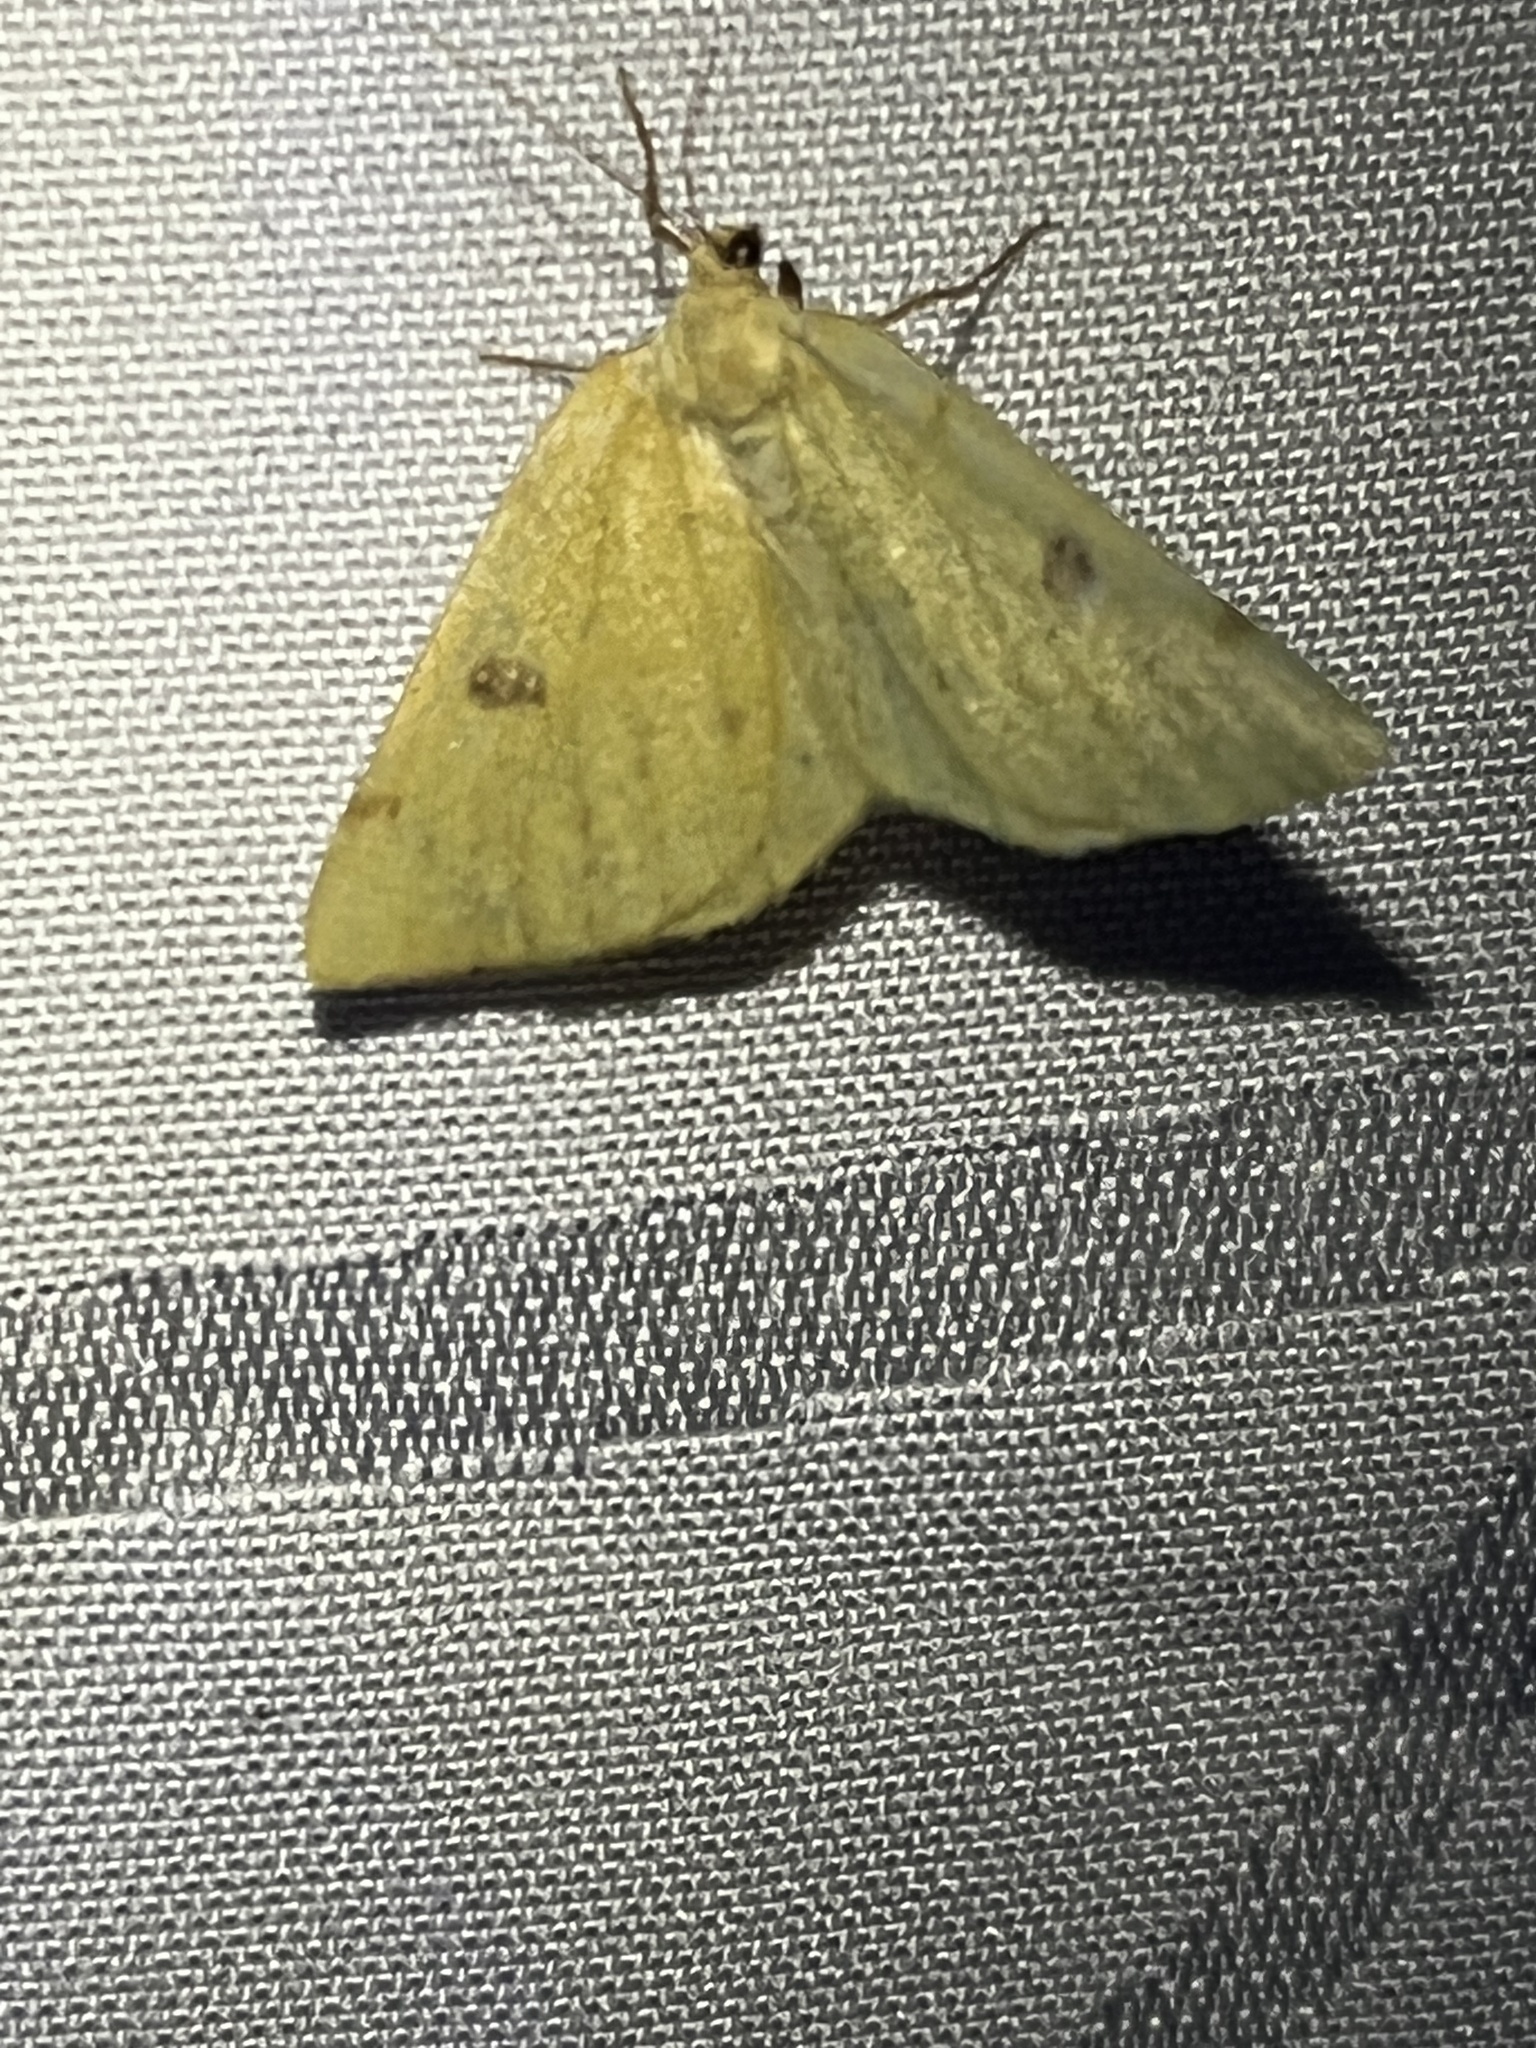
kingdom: Animalia
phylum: Arthropoda
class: Insecta
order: Lepidoptera
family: Geometridae
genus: Hesperumia
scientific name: Hesperumia sulphuraria
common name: Sulphur moth
